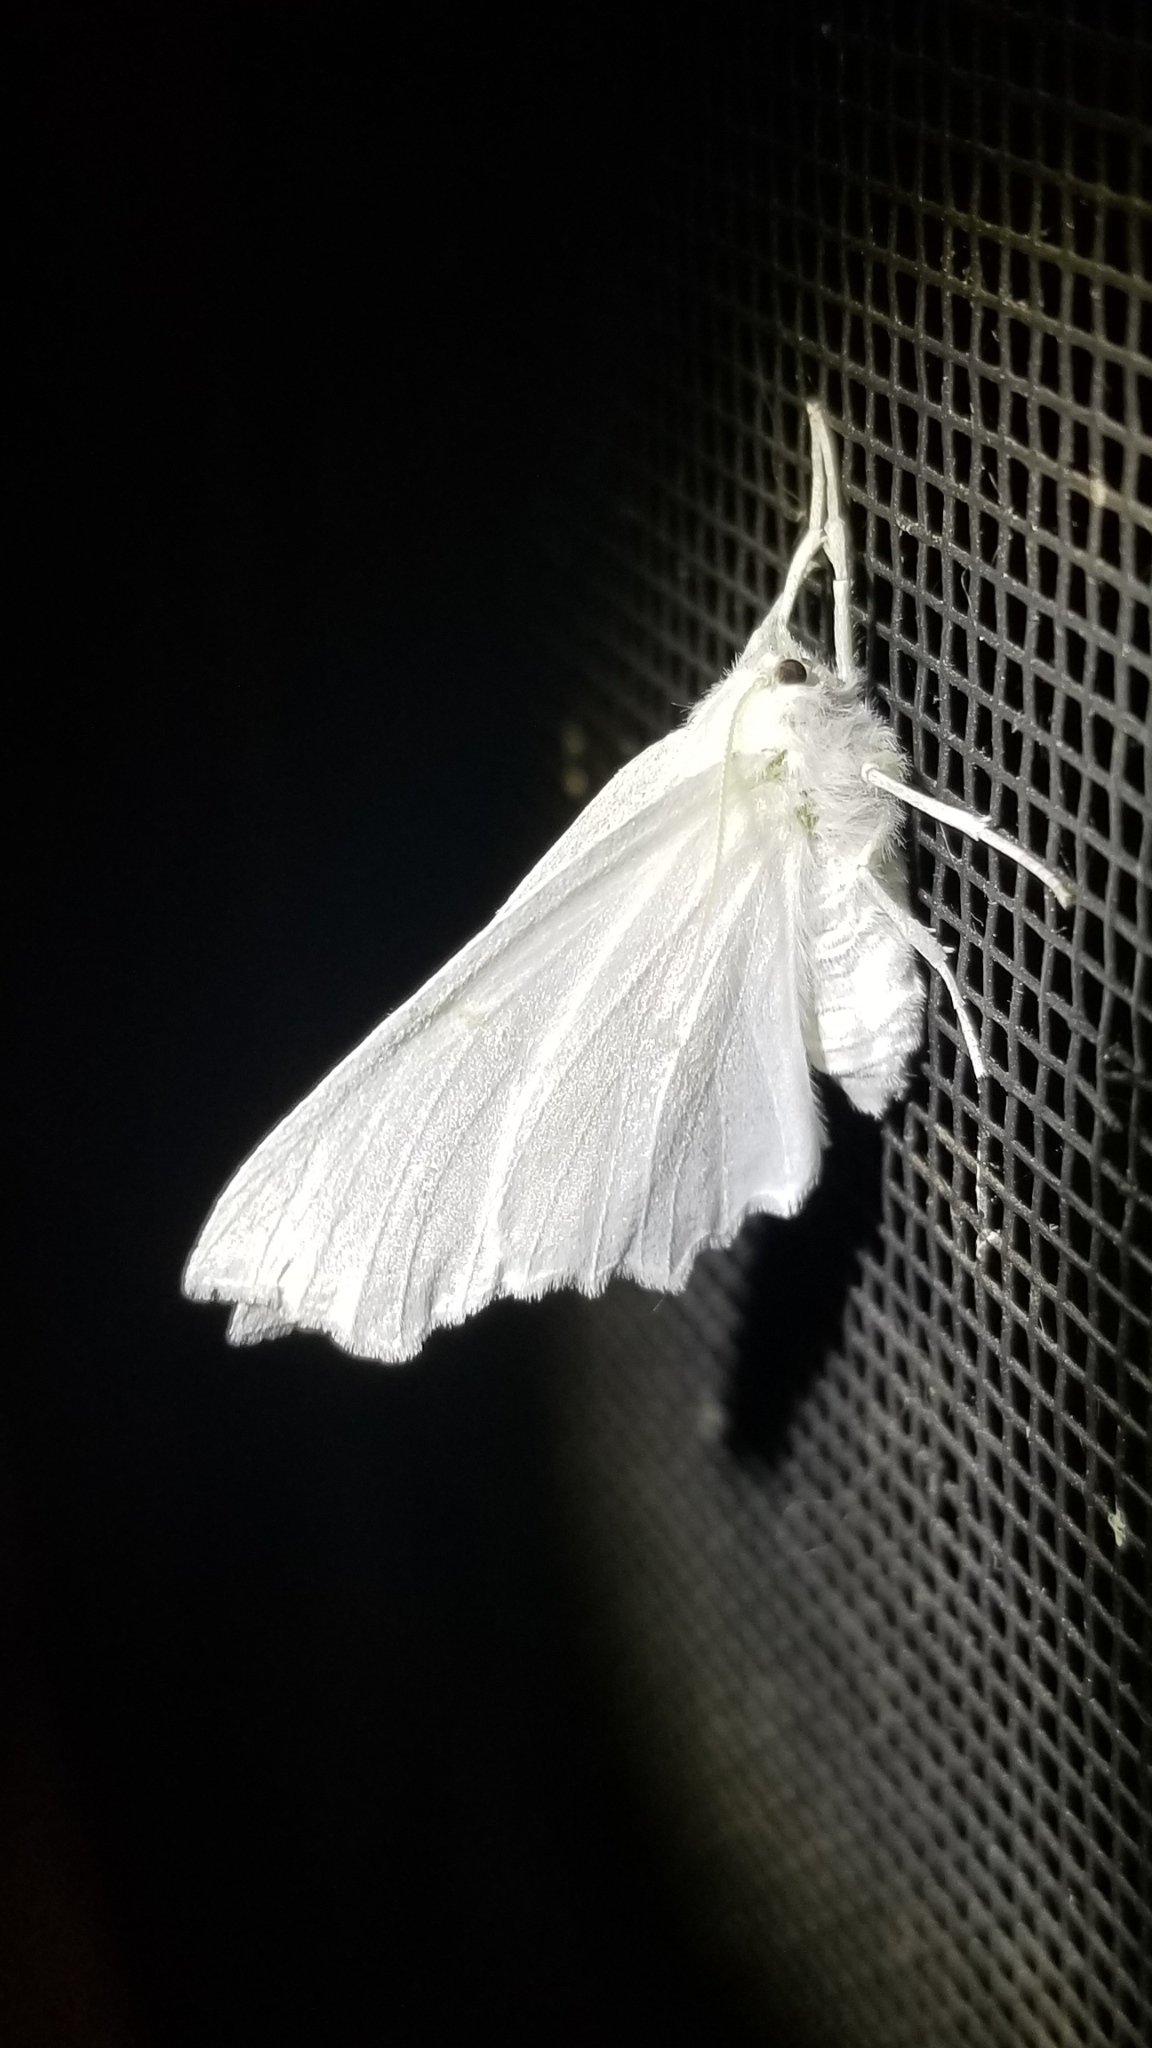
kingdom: Animalia
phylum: Arthropoda
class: Insecta
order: Lepidoptera
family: Geometridae
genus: Ennomos
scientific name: Ennomos subsignaria
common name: Elm spanworm
